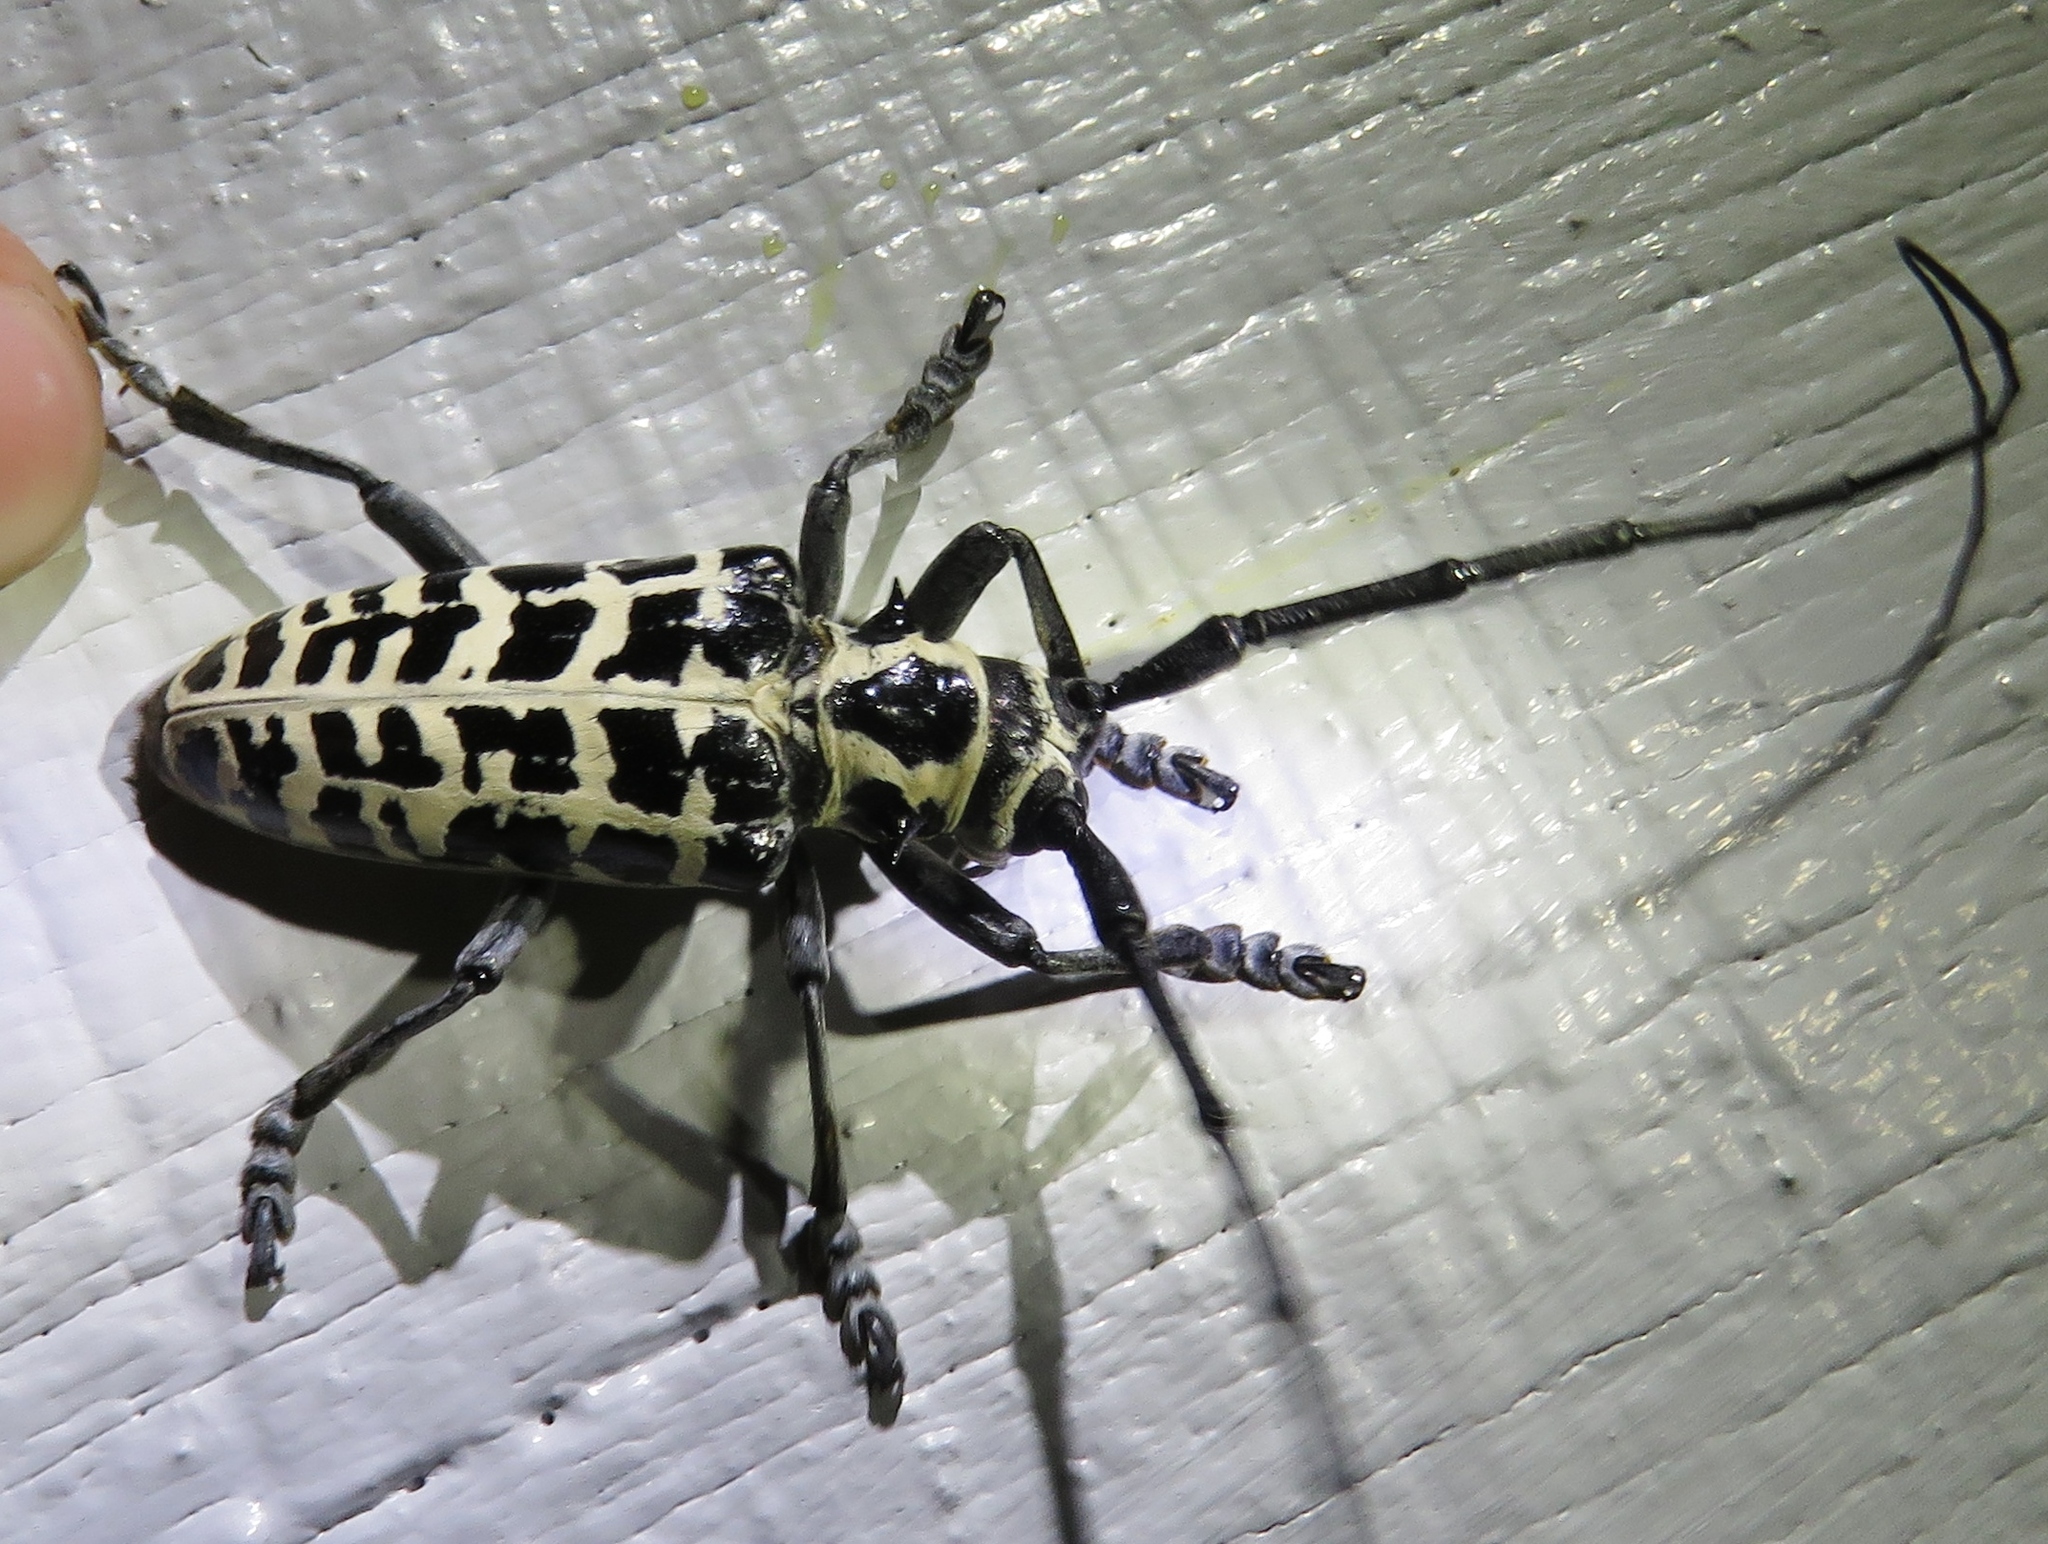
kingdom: Animalia
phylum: Arthropoda
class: Insecta
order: Coleoptera
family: Cerambycidae
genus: Plectrodera
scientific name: Plectrodera scalator
